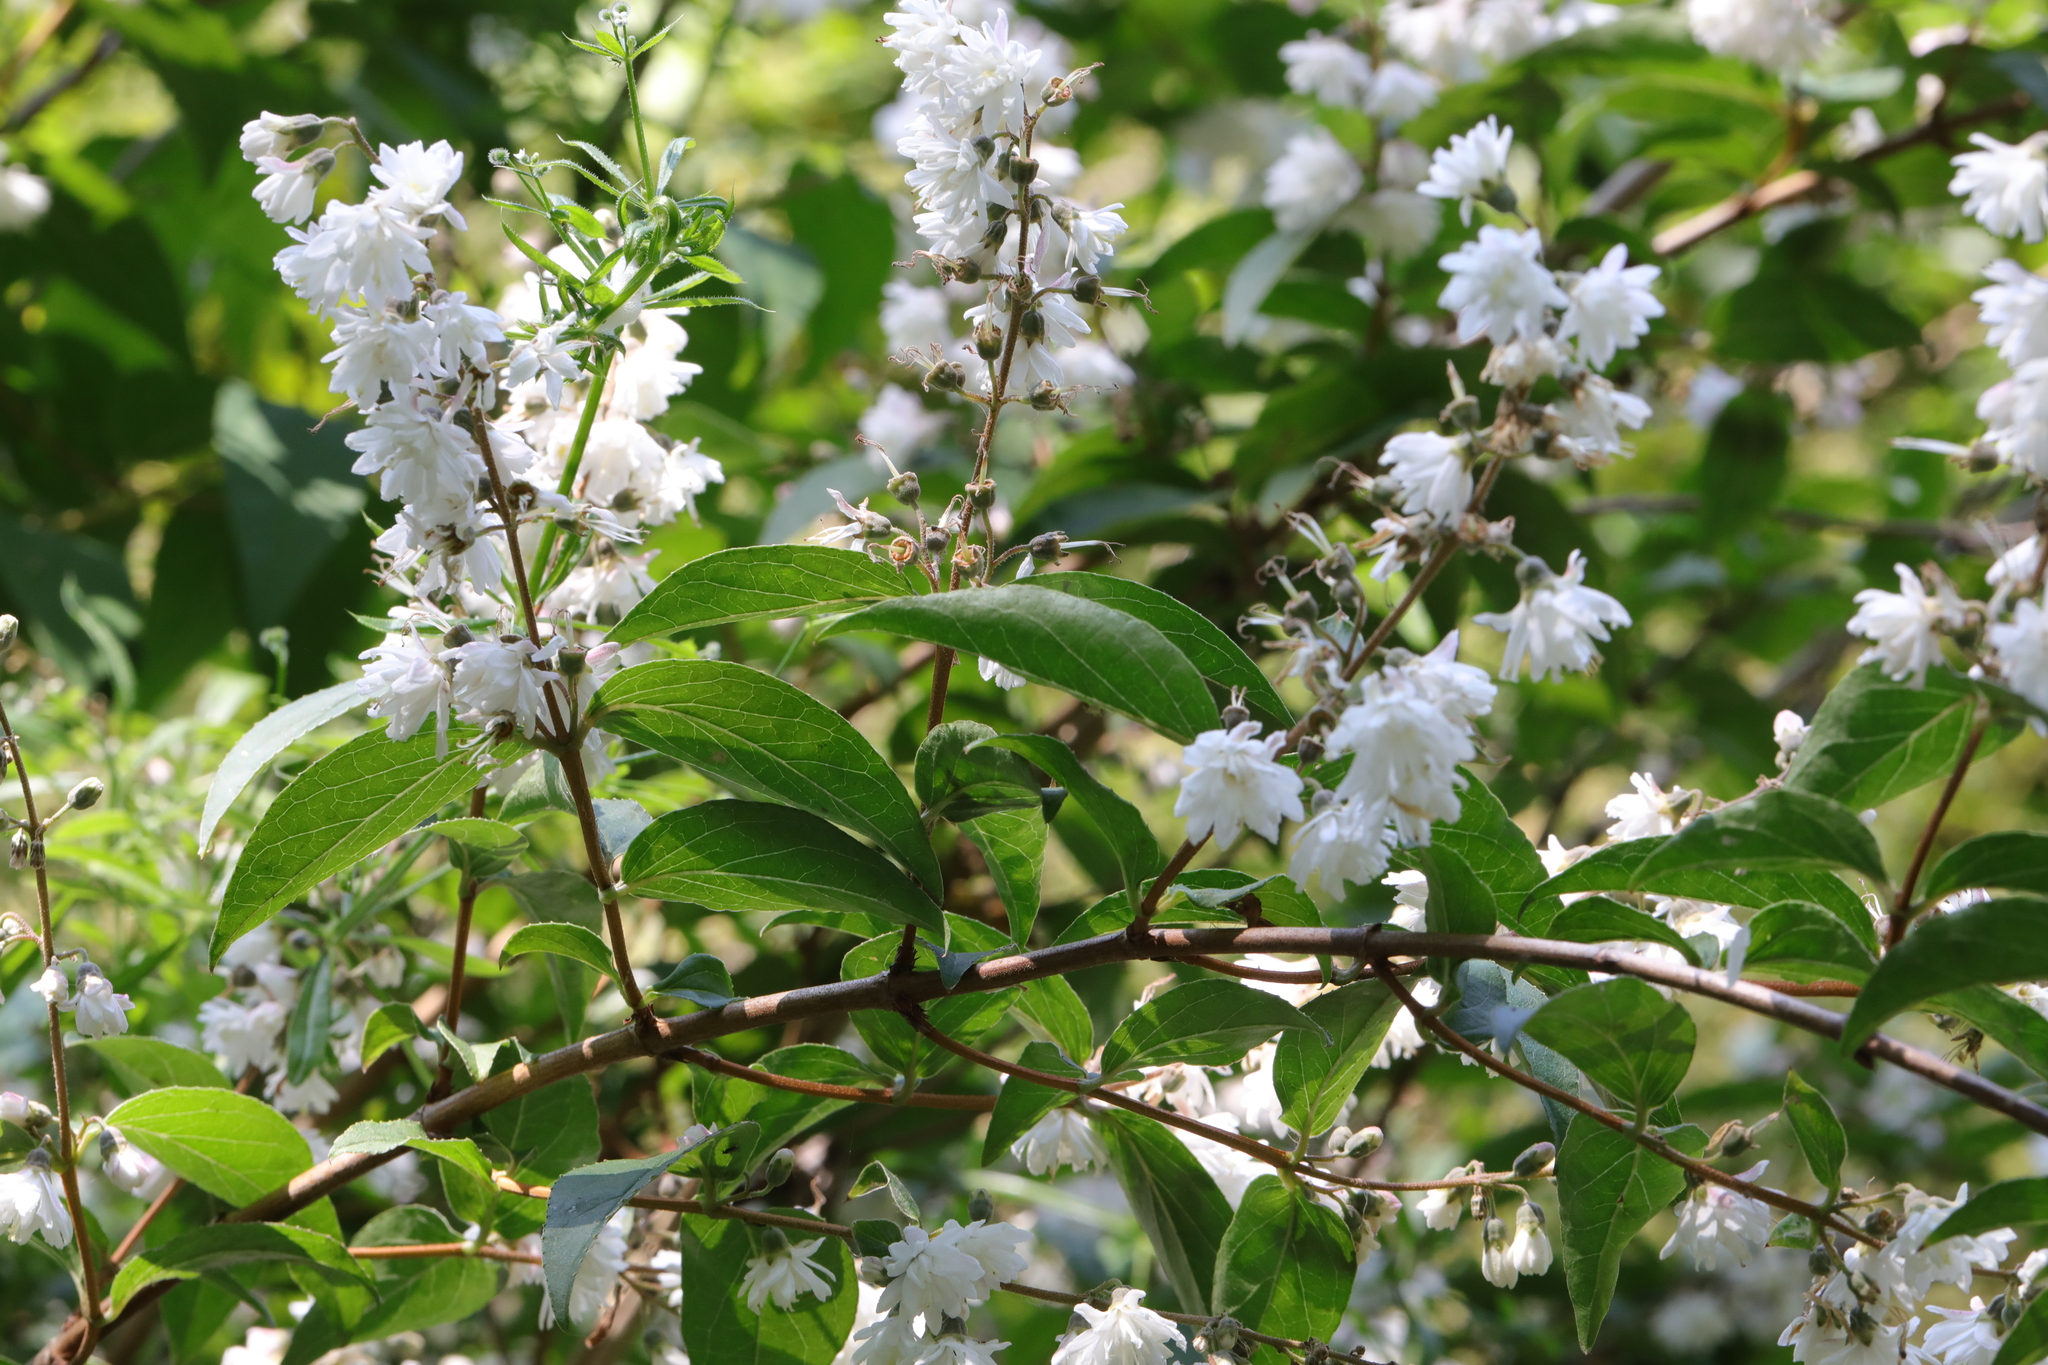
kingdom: Plantae
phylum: Tracheophyta
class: Magnoliopsida
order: Cornales
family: Hydrangeaceae
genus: Deutzia
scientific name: Deutzia scabra
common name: Deutzia
